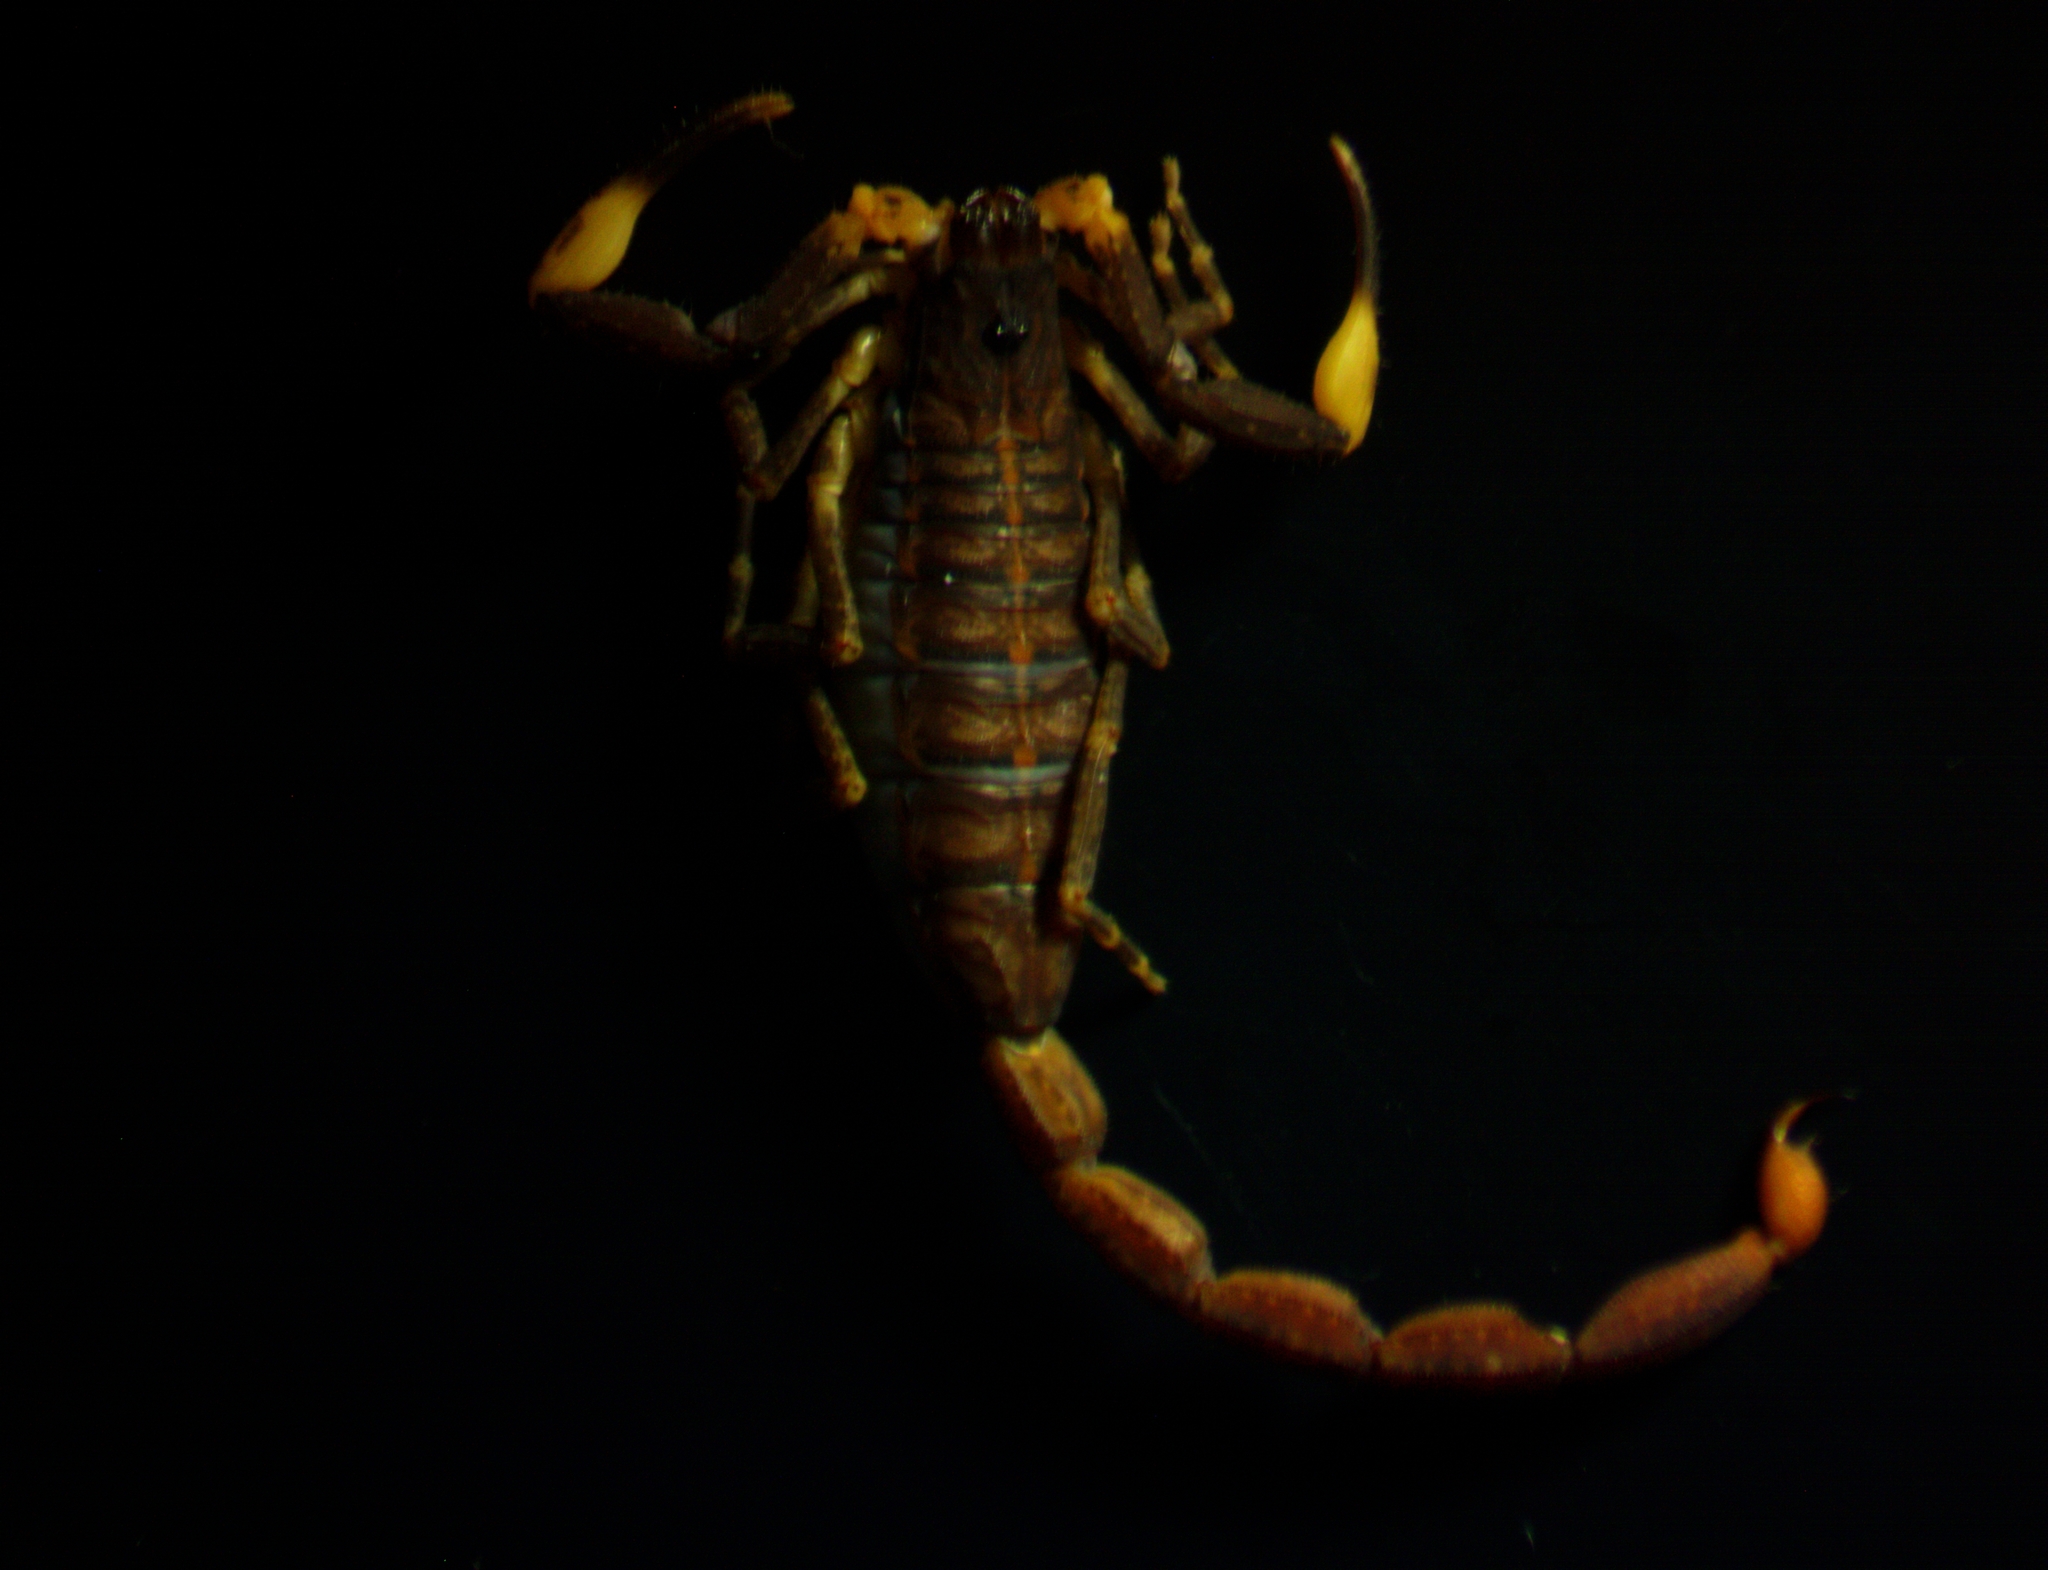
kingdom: Animalia
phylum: Arthropoda
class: Arachnida
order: Scorpiones
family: Buthidae
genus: Centruroides
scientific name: Centruroides ixil
